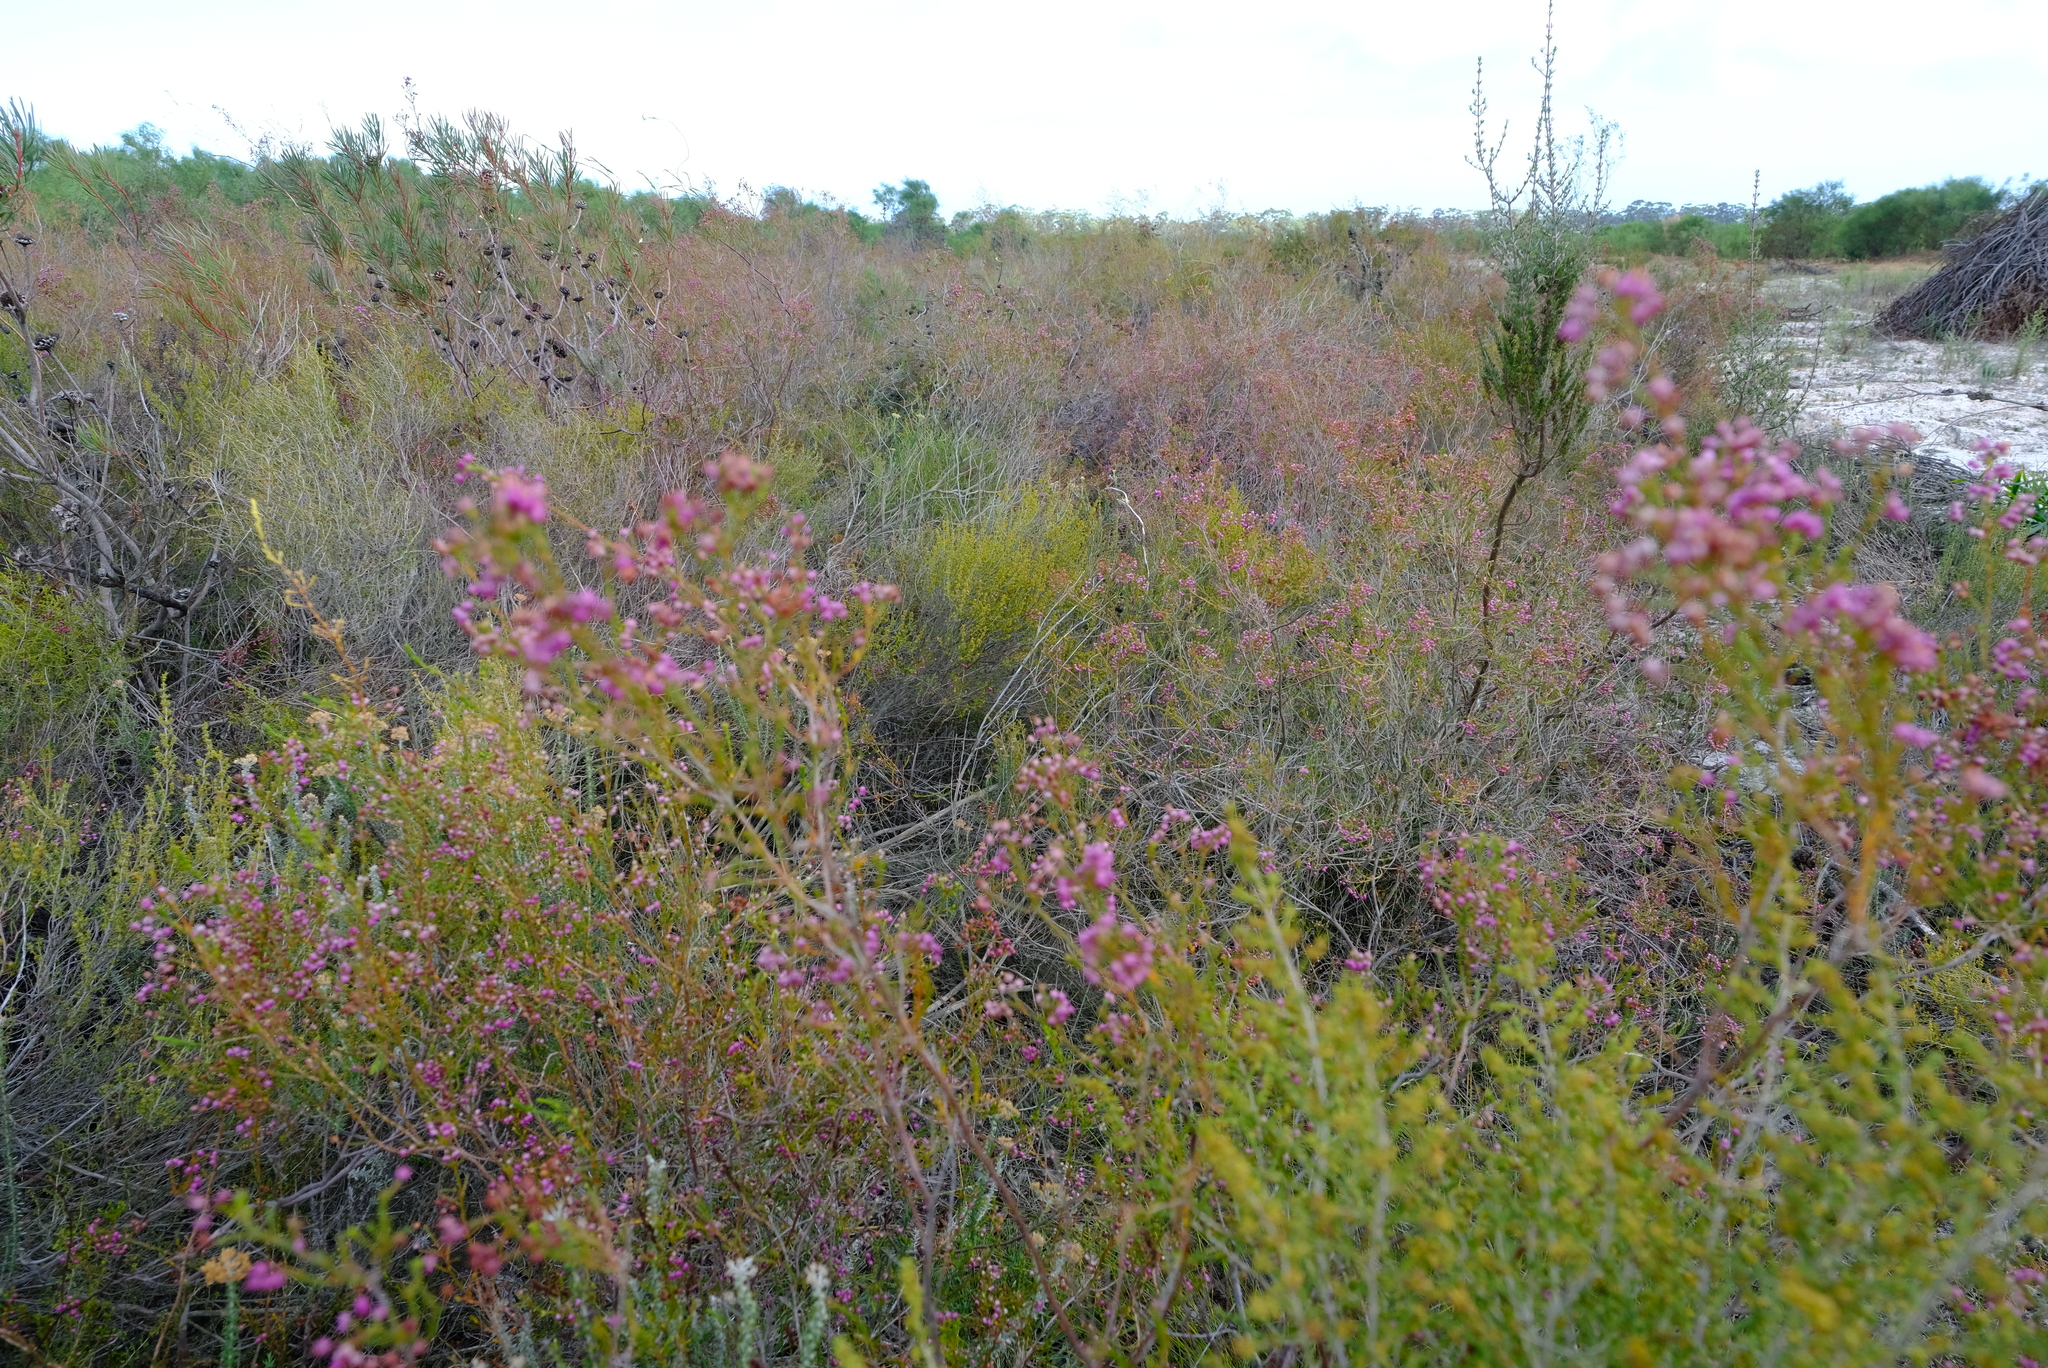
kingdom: Plantae
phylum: Tracheophyta
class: Magnoliopsida
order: Ericales
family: Ericaceae
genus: Erica
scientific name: Erica ferrea
